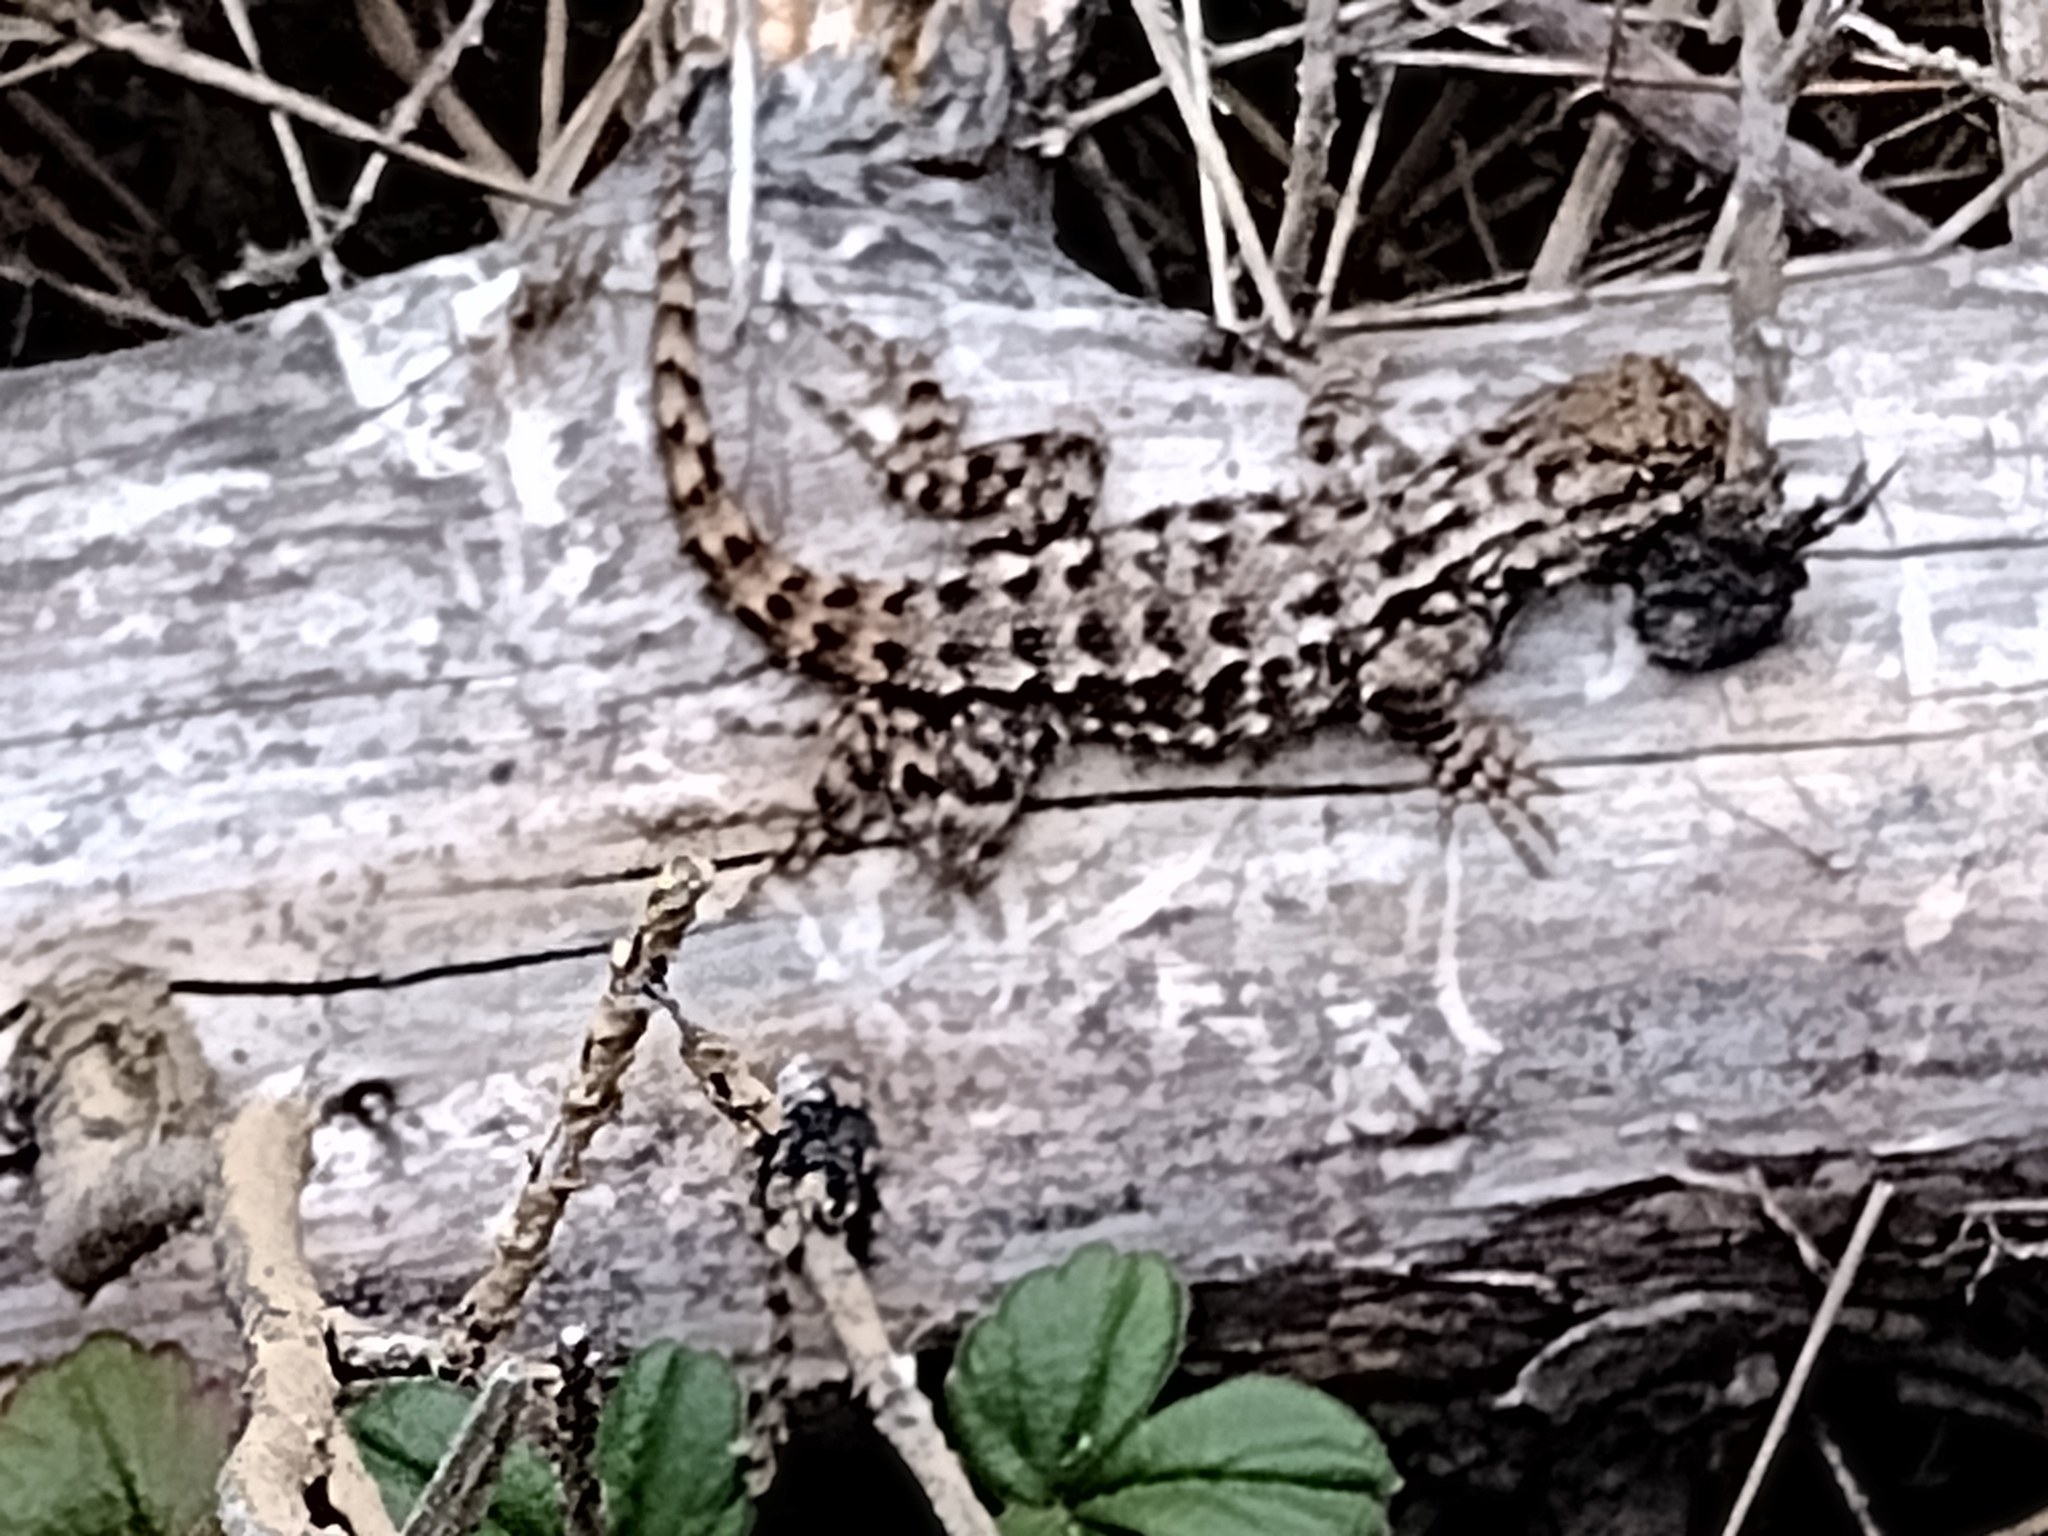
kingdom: Animalia
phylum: Chordata
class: Squamata
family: Phrynosomatidae
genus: Sceloporus
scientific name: Sceloporus occidentalis
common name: Western fence lizard
